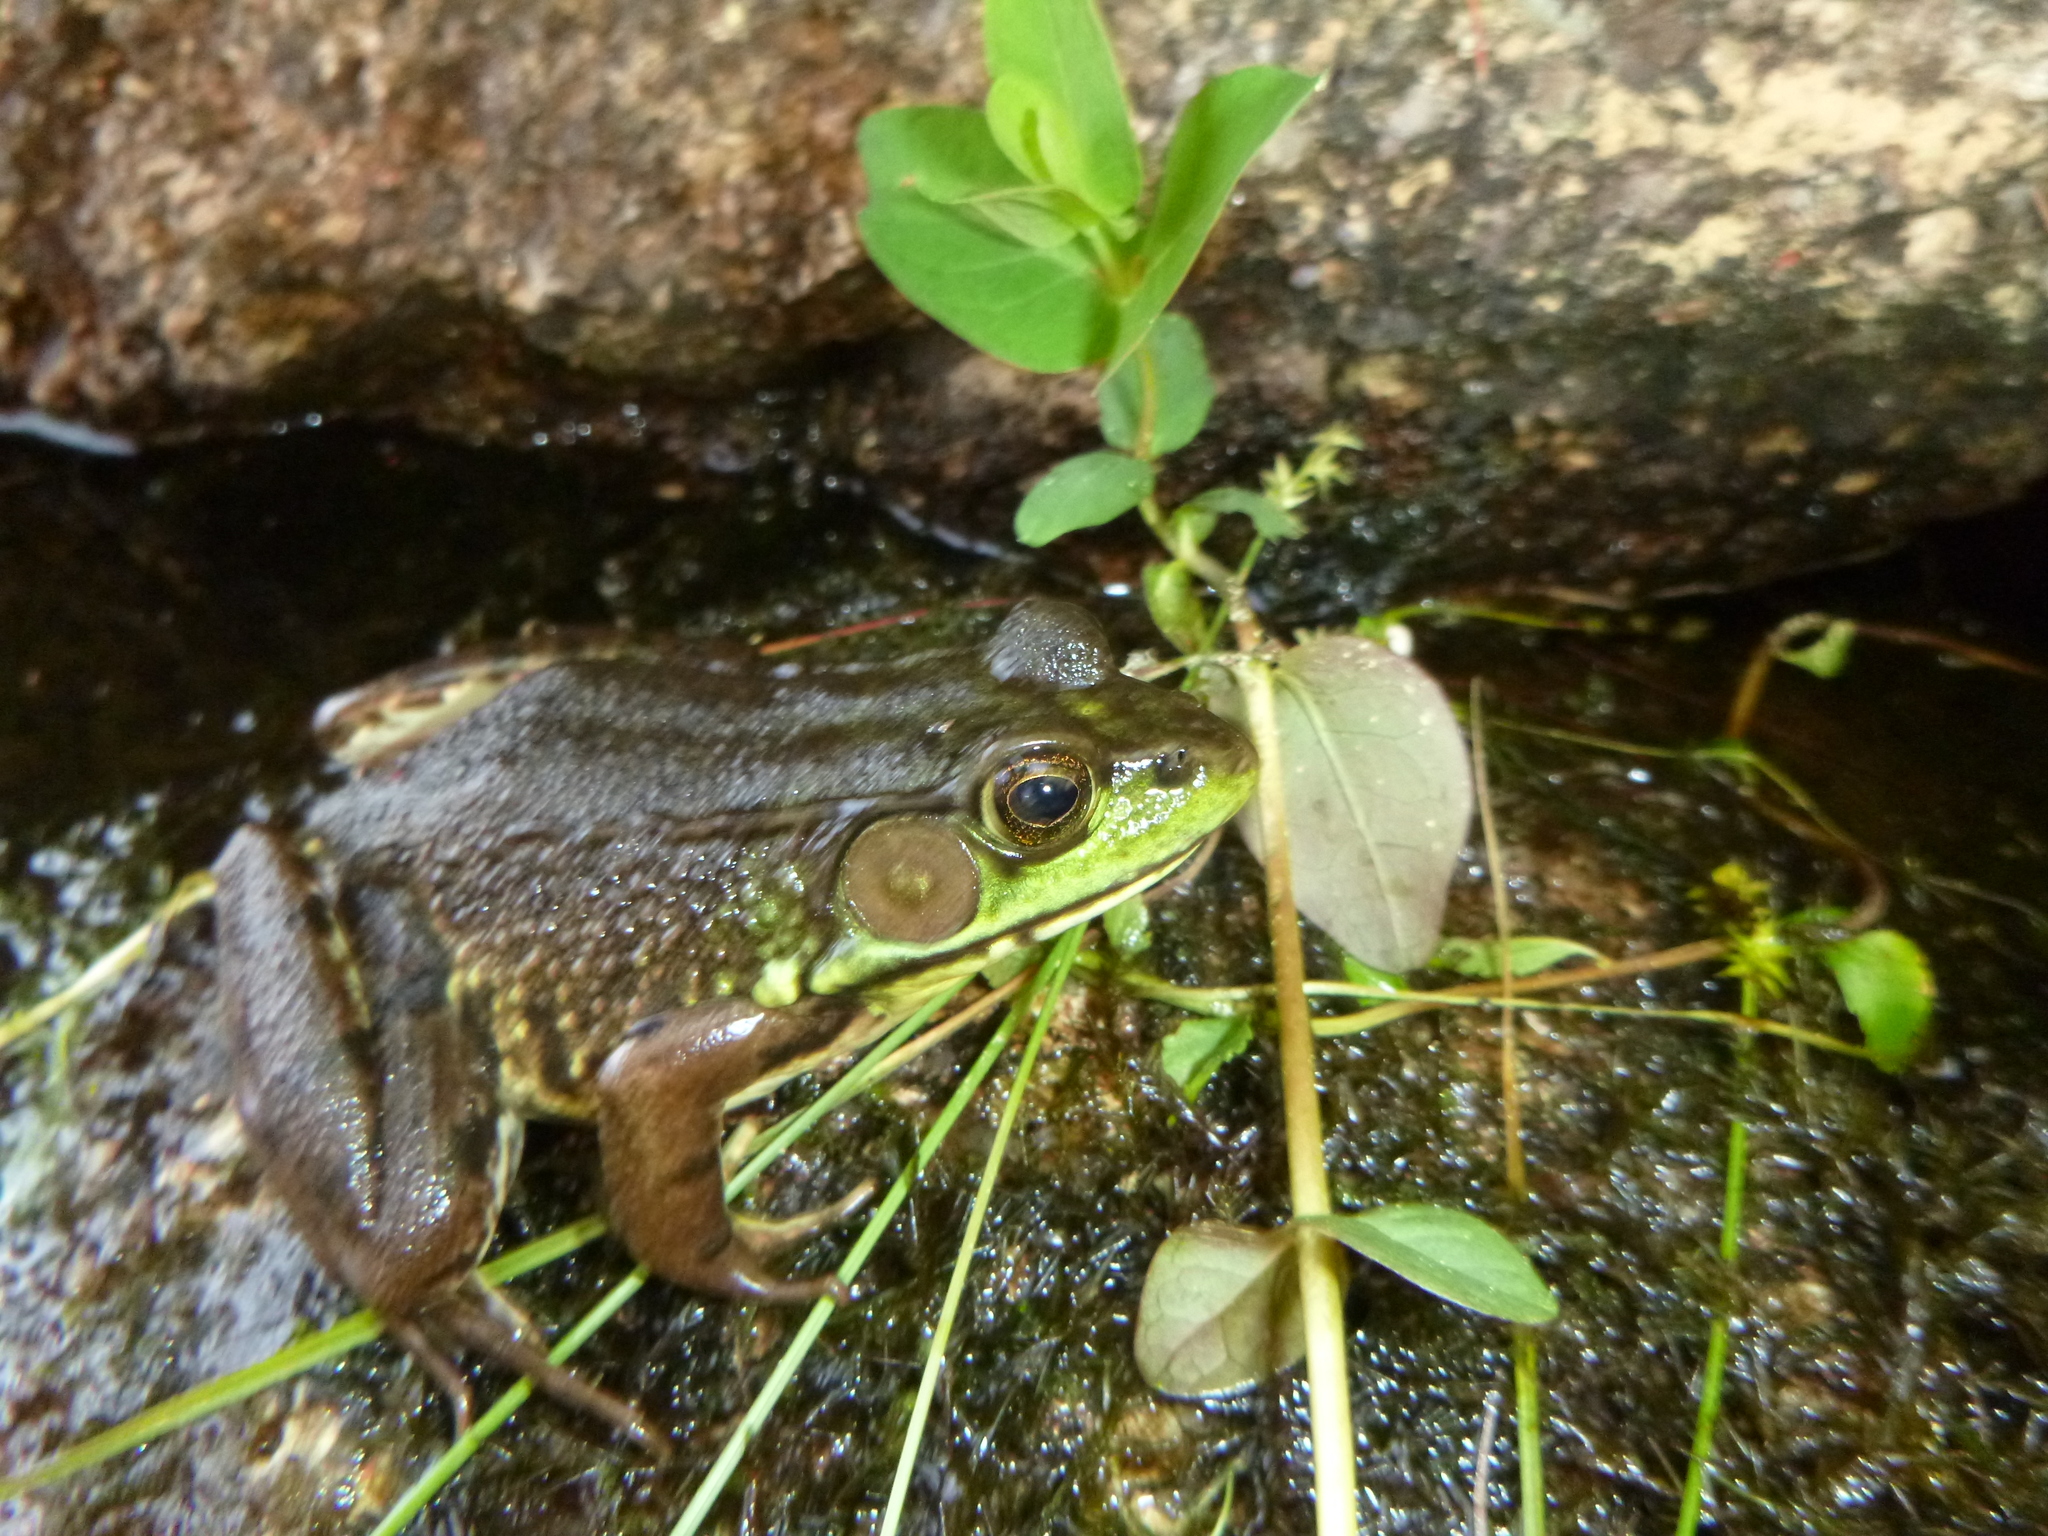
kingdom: Animalia
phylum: Chordata
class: Amphibia
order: Anura
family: Ranidae
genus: Lithobates
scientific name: Lithobates clamitans
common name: Green frog
